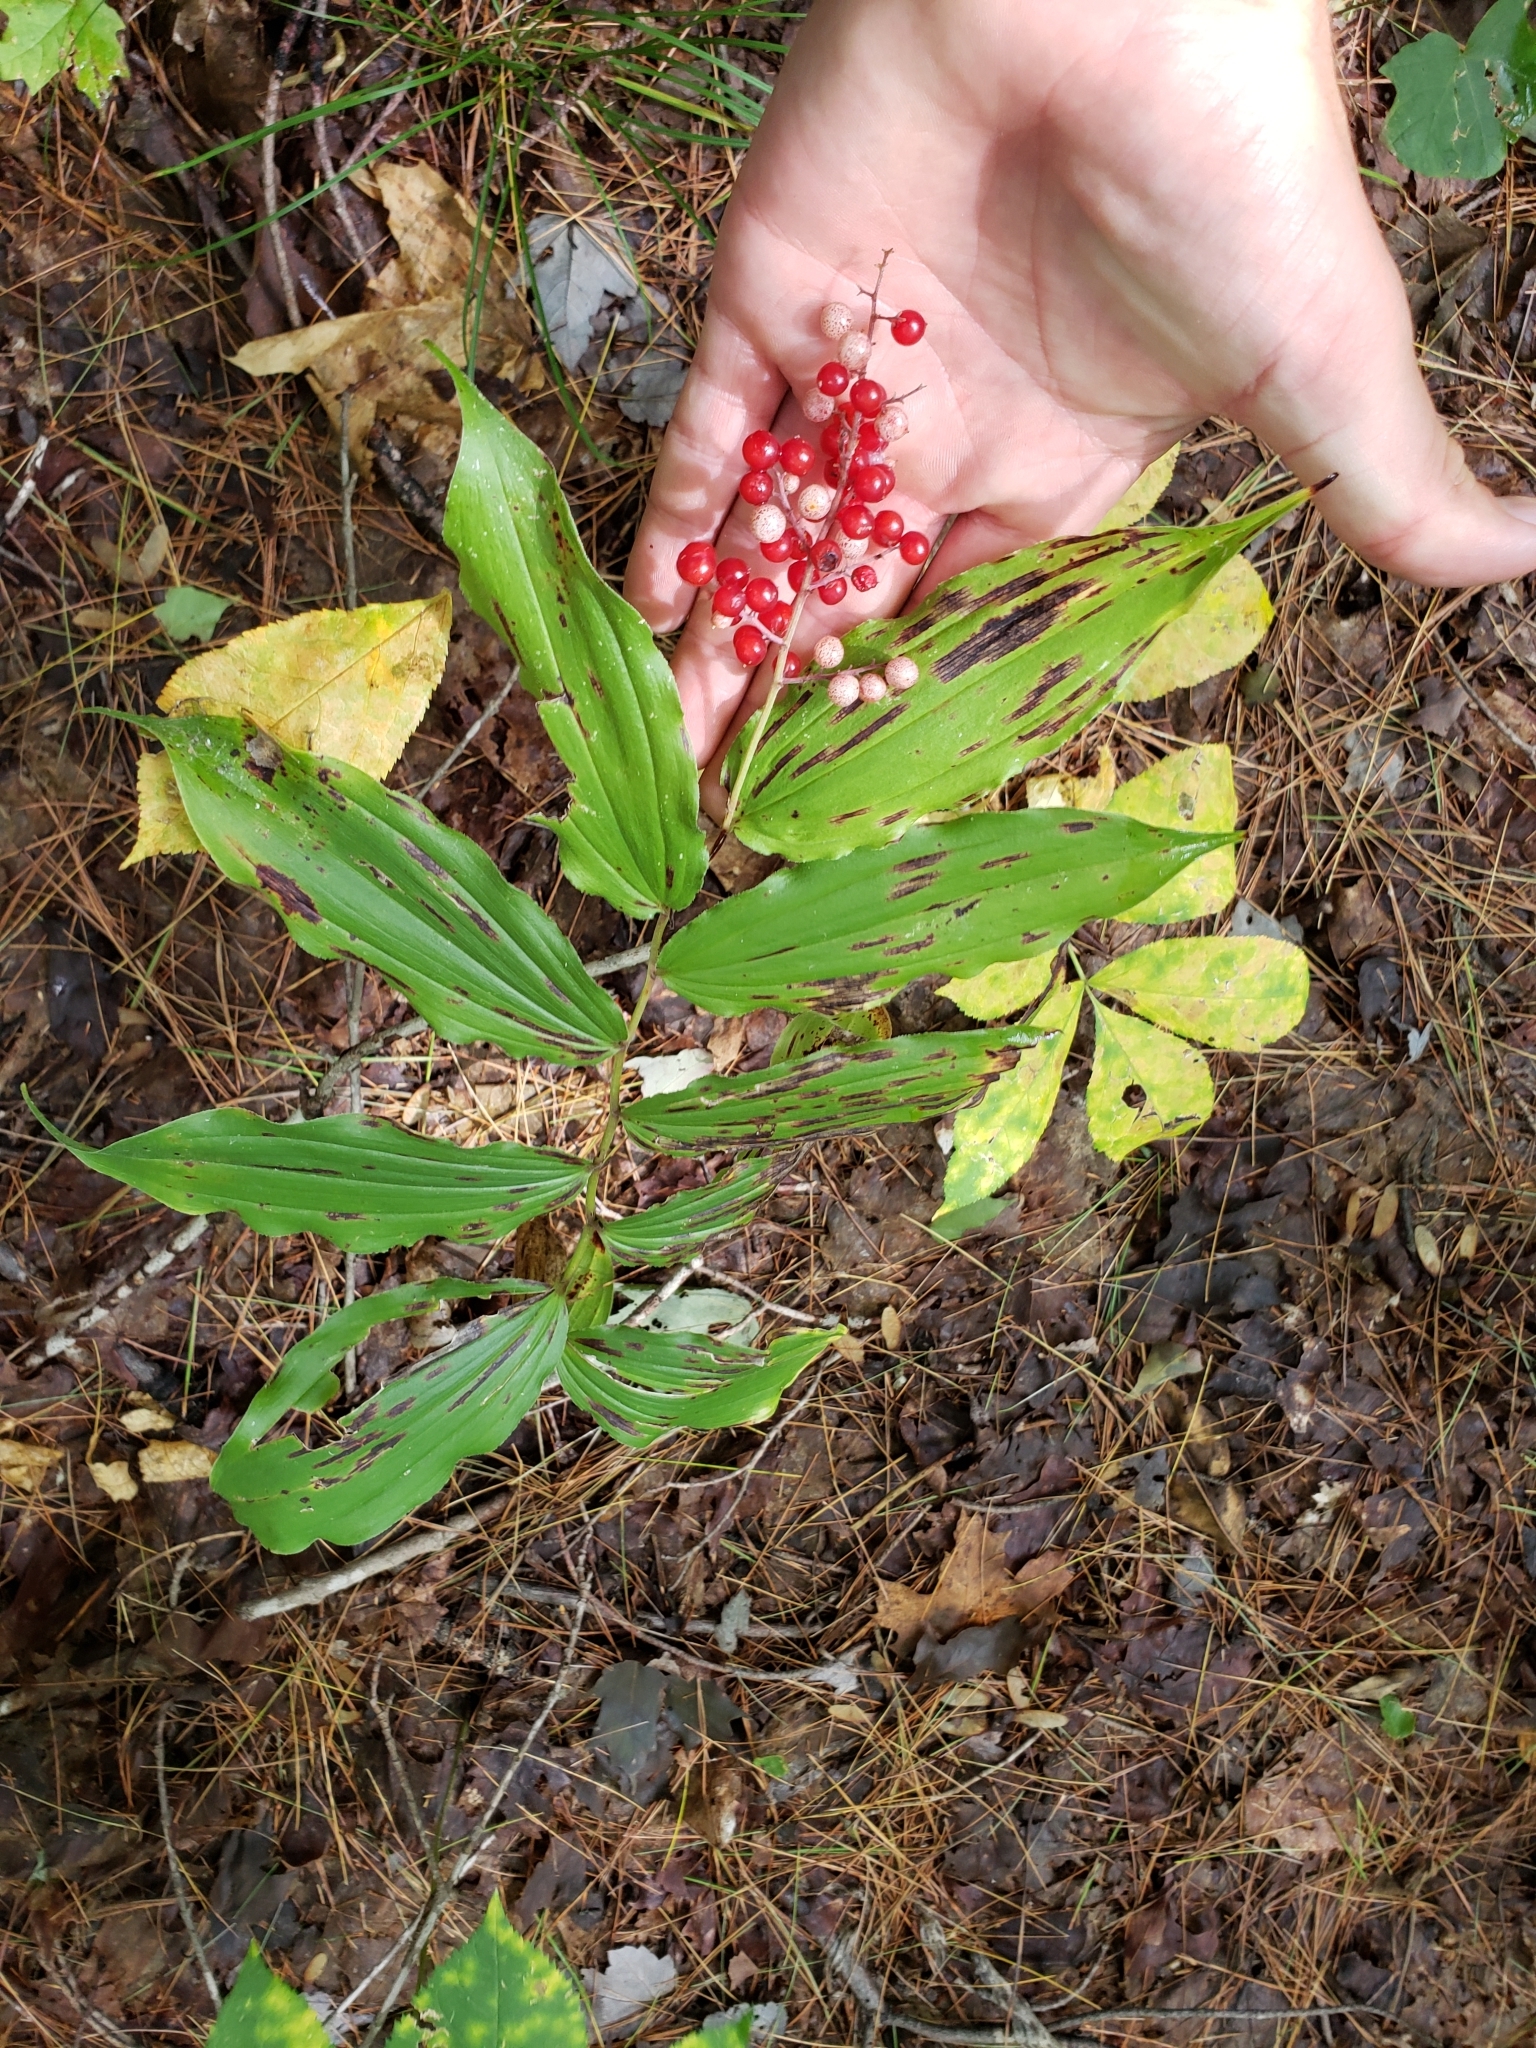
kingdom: Plantae
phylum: Tracheophyta
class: Liliopsida
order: Asparagales
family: Asparagaceae
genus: Maianthemum
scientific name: Maianthemum racemosum
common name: False spikenard
